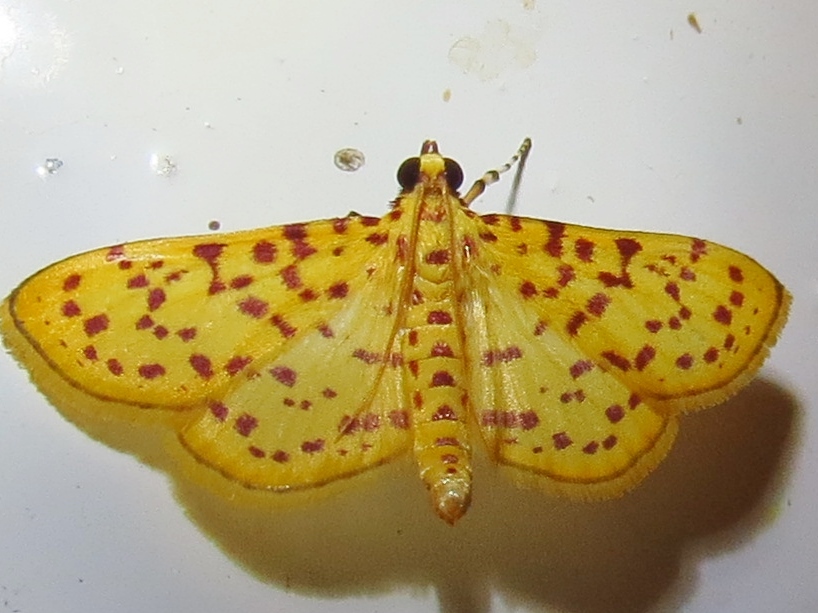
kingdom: Animalia
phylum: Arthropoda
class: Insecta
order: Lepidoptera
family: Crambidae
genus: Polygrammodes
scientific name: Polygrammodes elevata
